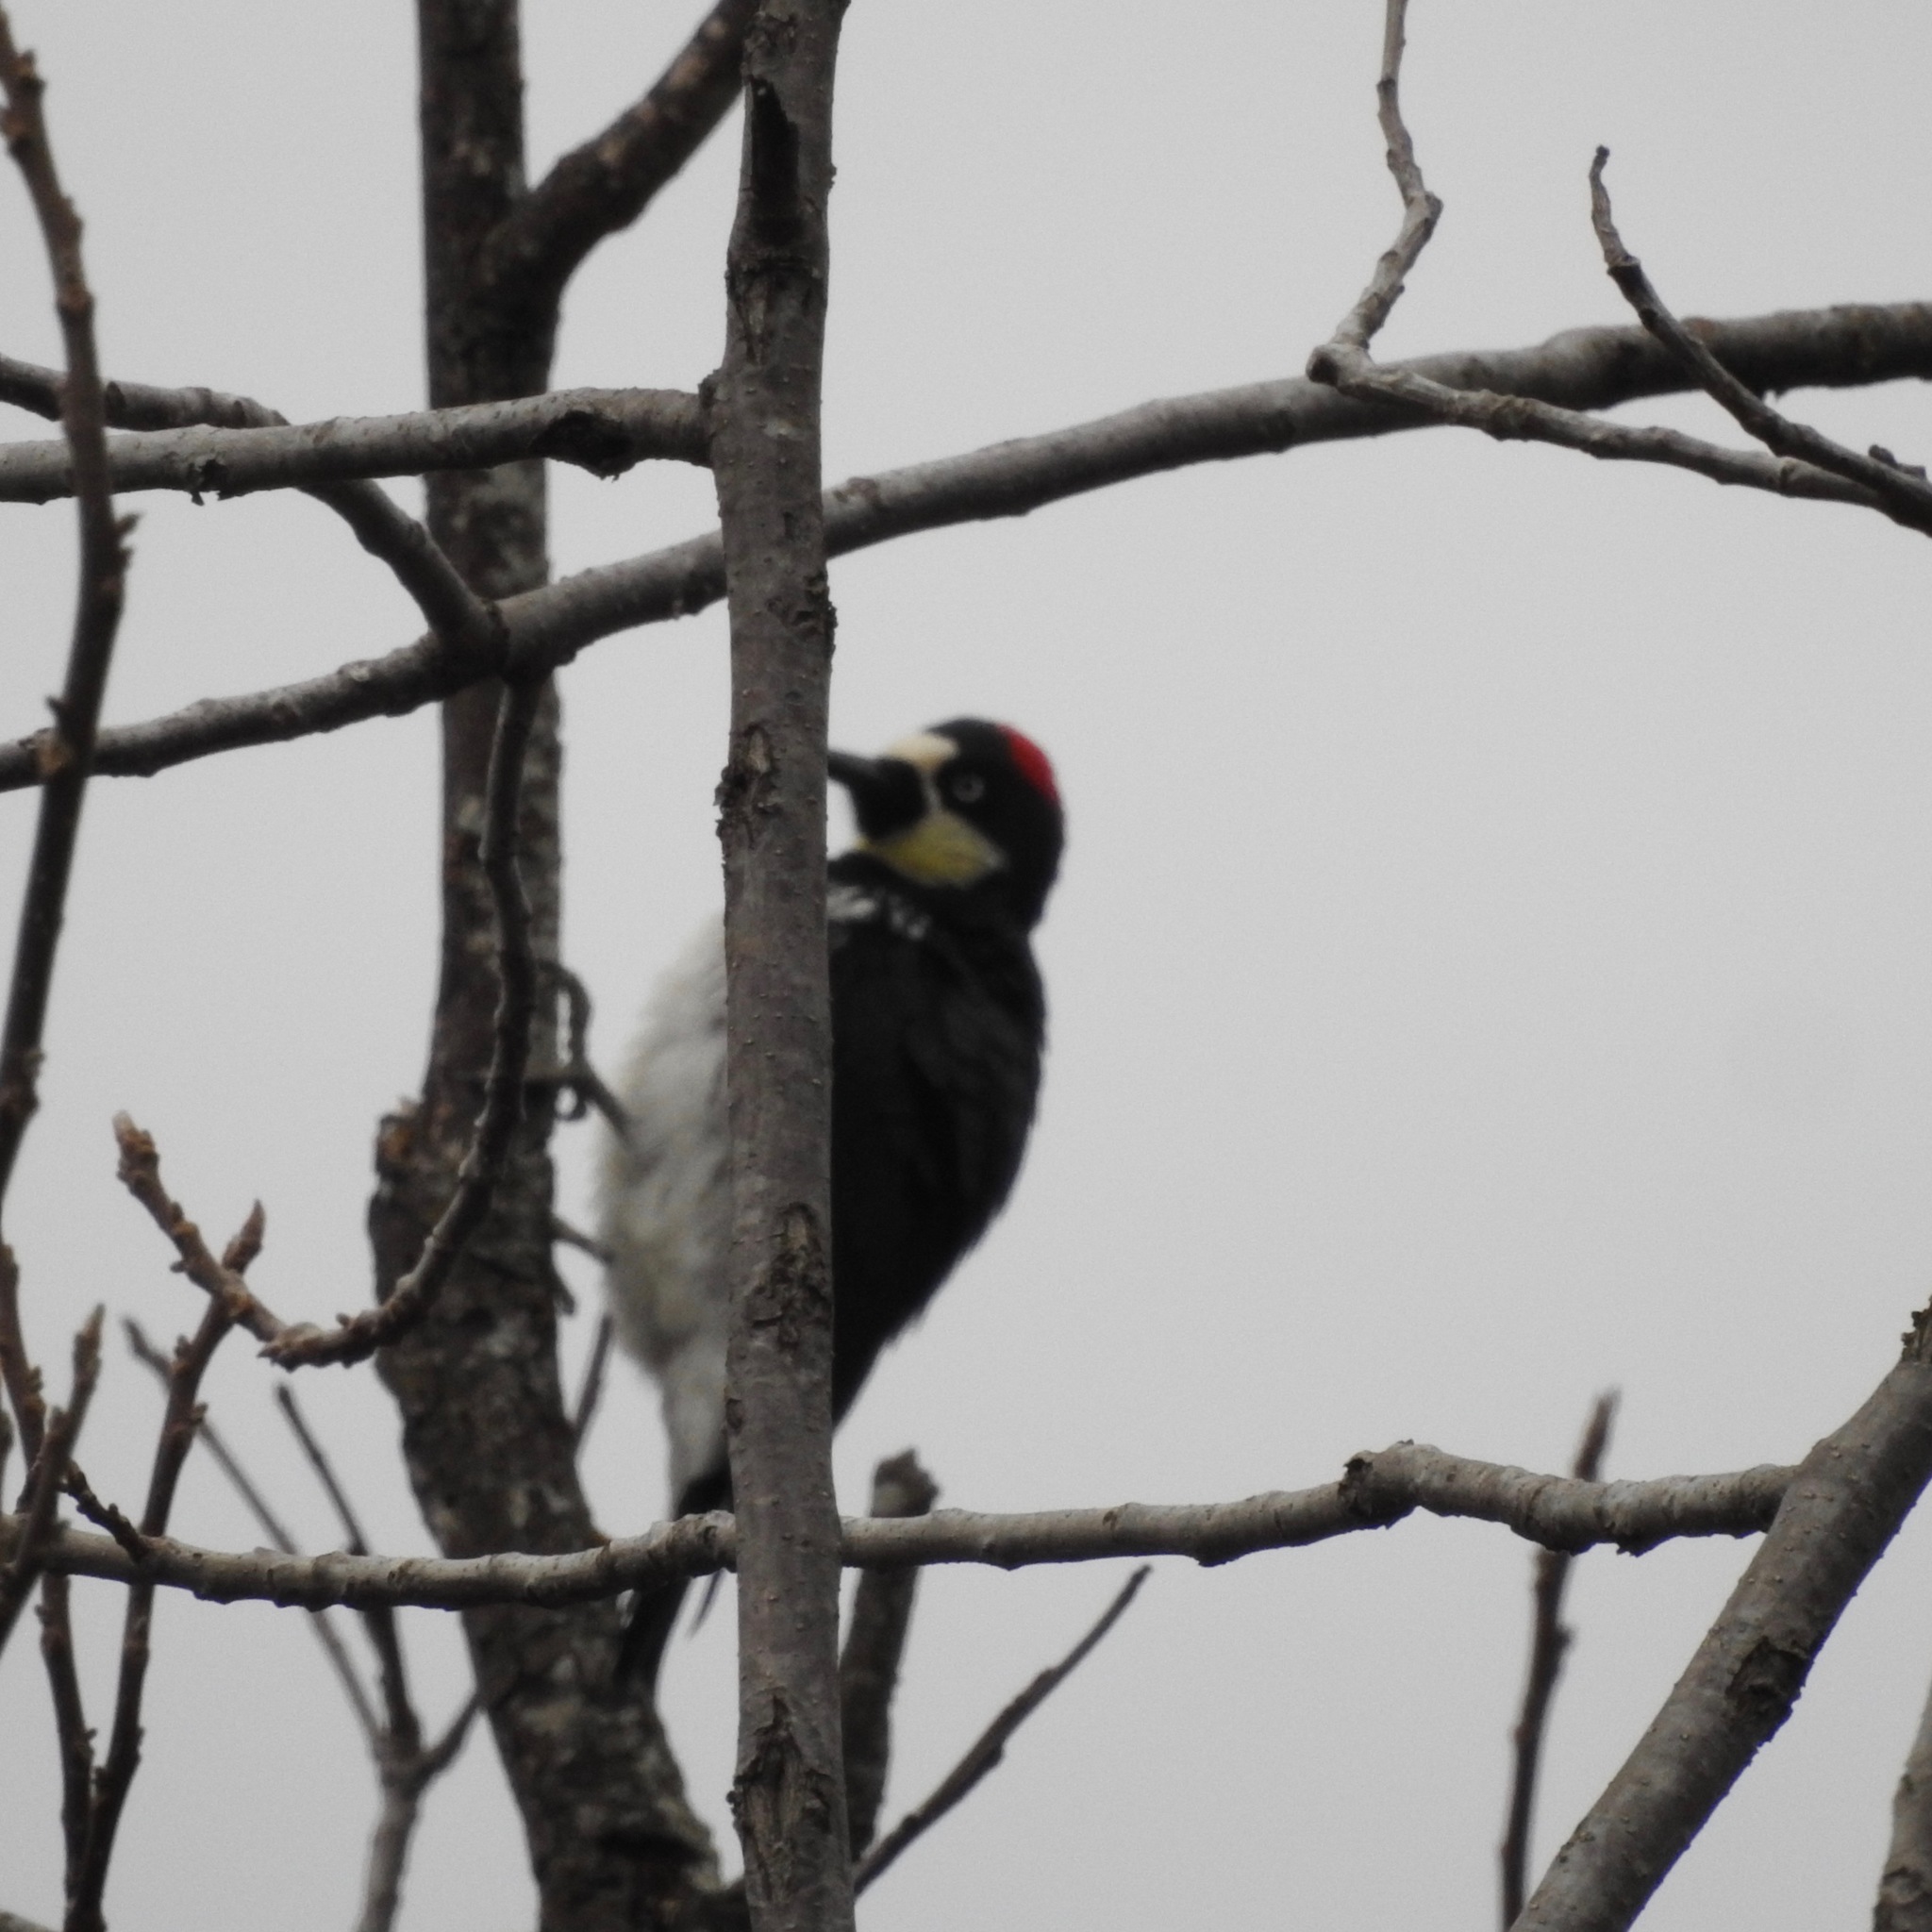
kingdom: Animalia
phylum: Chordata
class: Aves
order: Piciformes
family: Picidae
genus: Melanerpes
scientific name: Melanerpes formicivorus
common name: Acorn woodpecker
